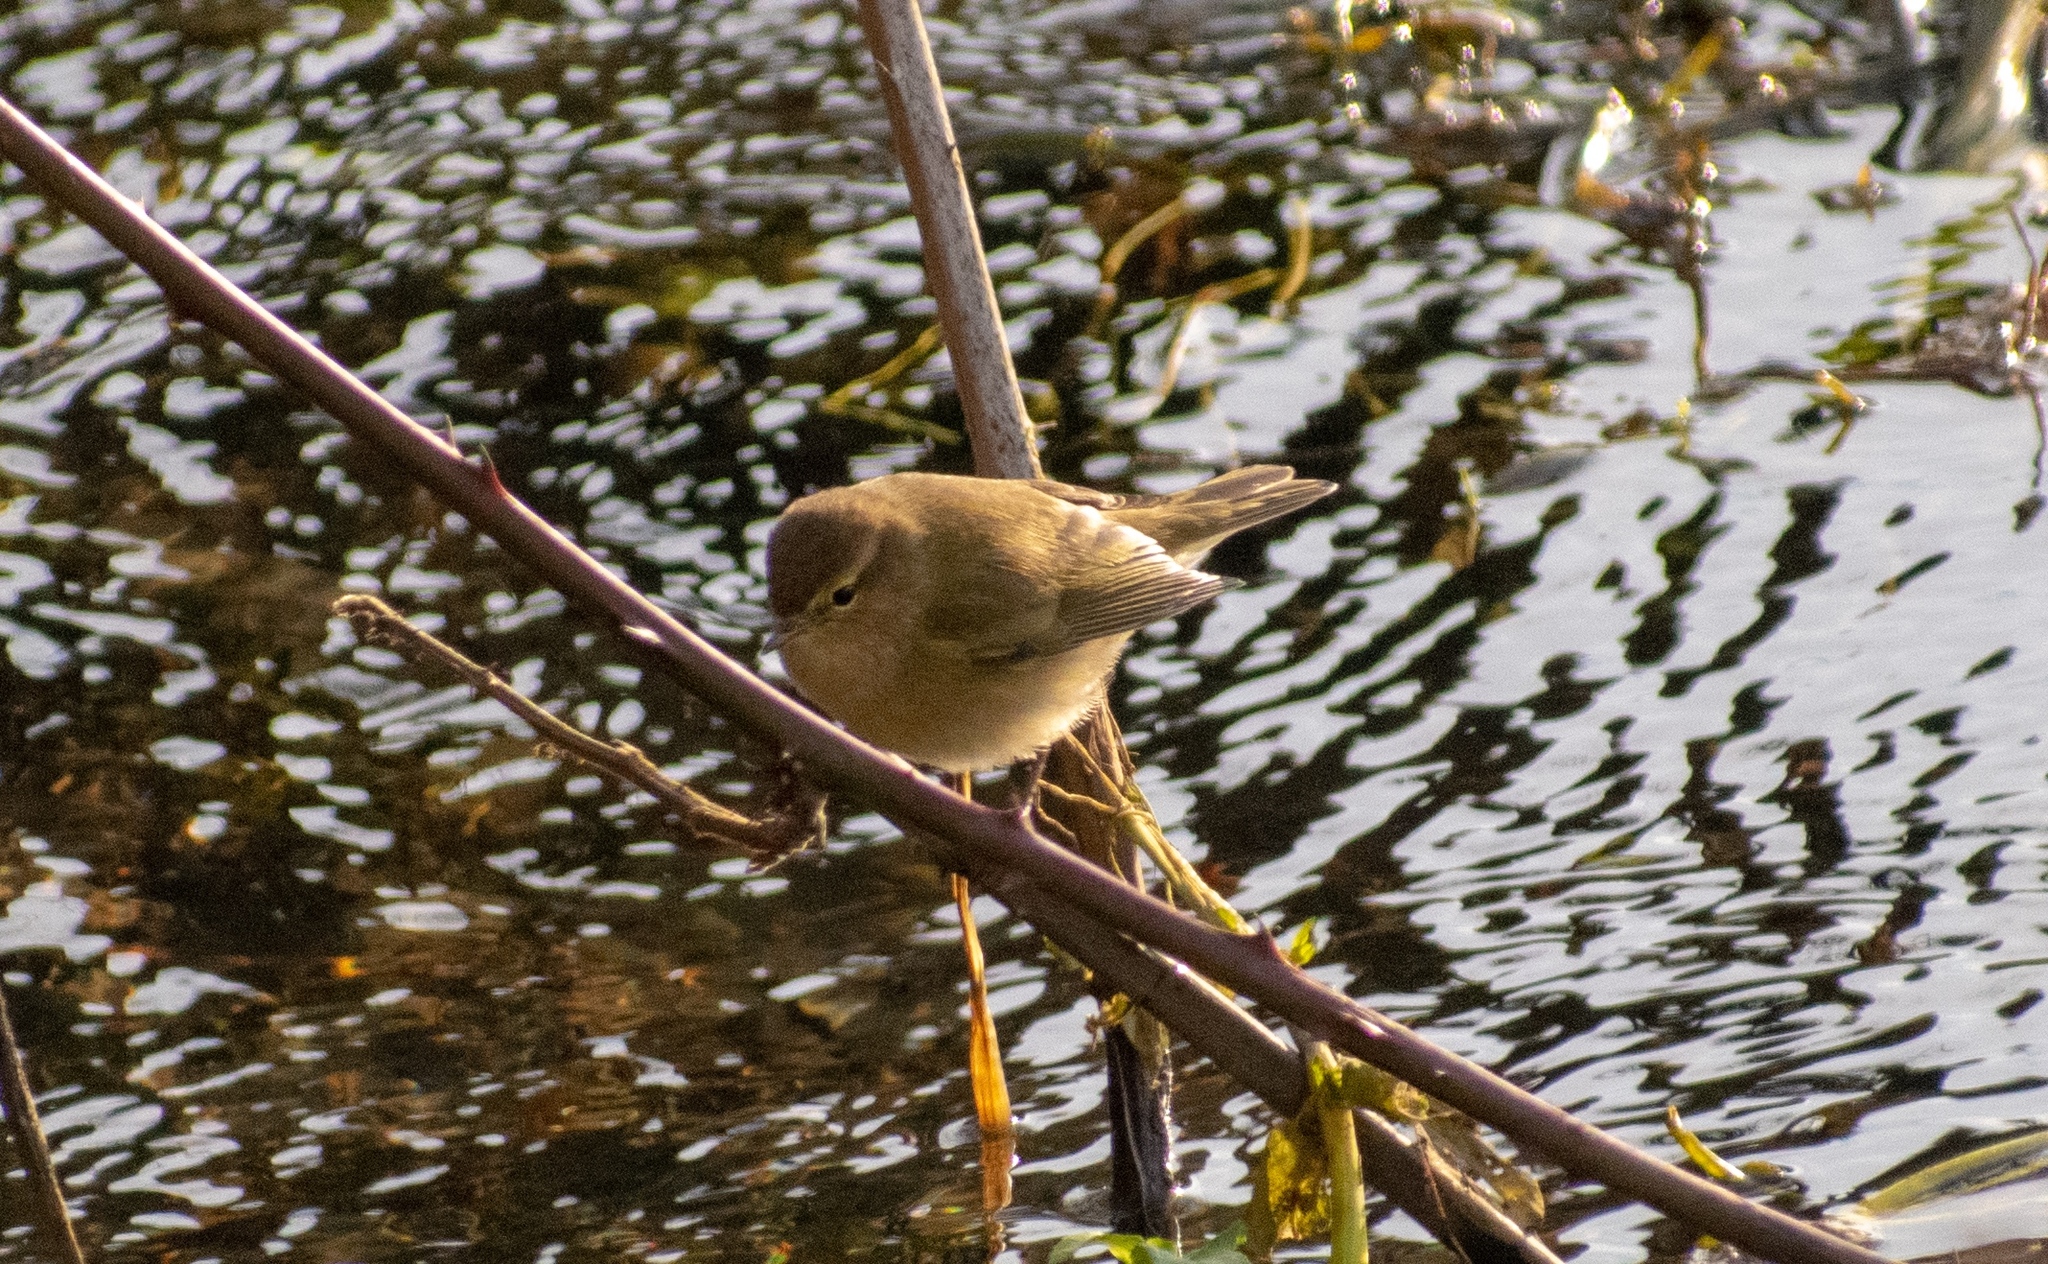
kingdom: Animalia
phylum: Chordata
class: Aves
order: Passeriformes
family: Phylloscopidae
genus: Phylloscopus
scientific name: Phylloscopus collybita
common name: Common chiffchaff
